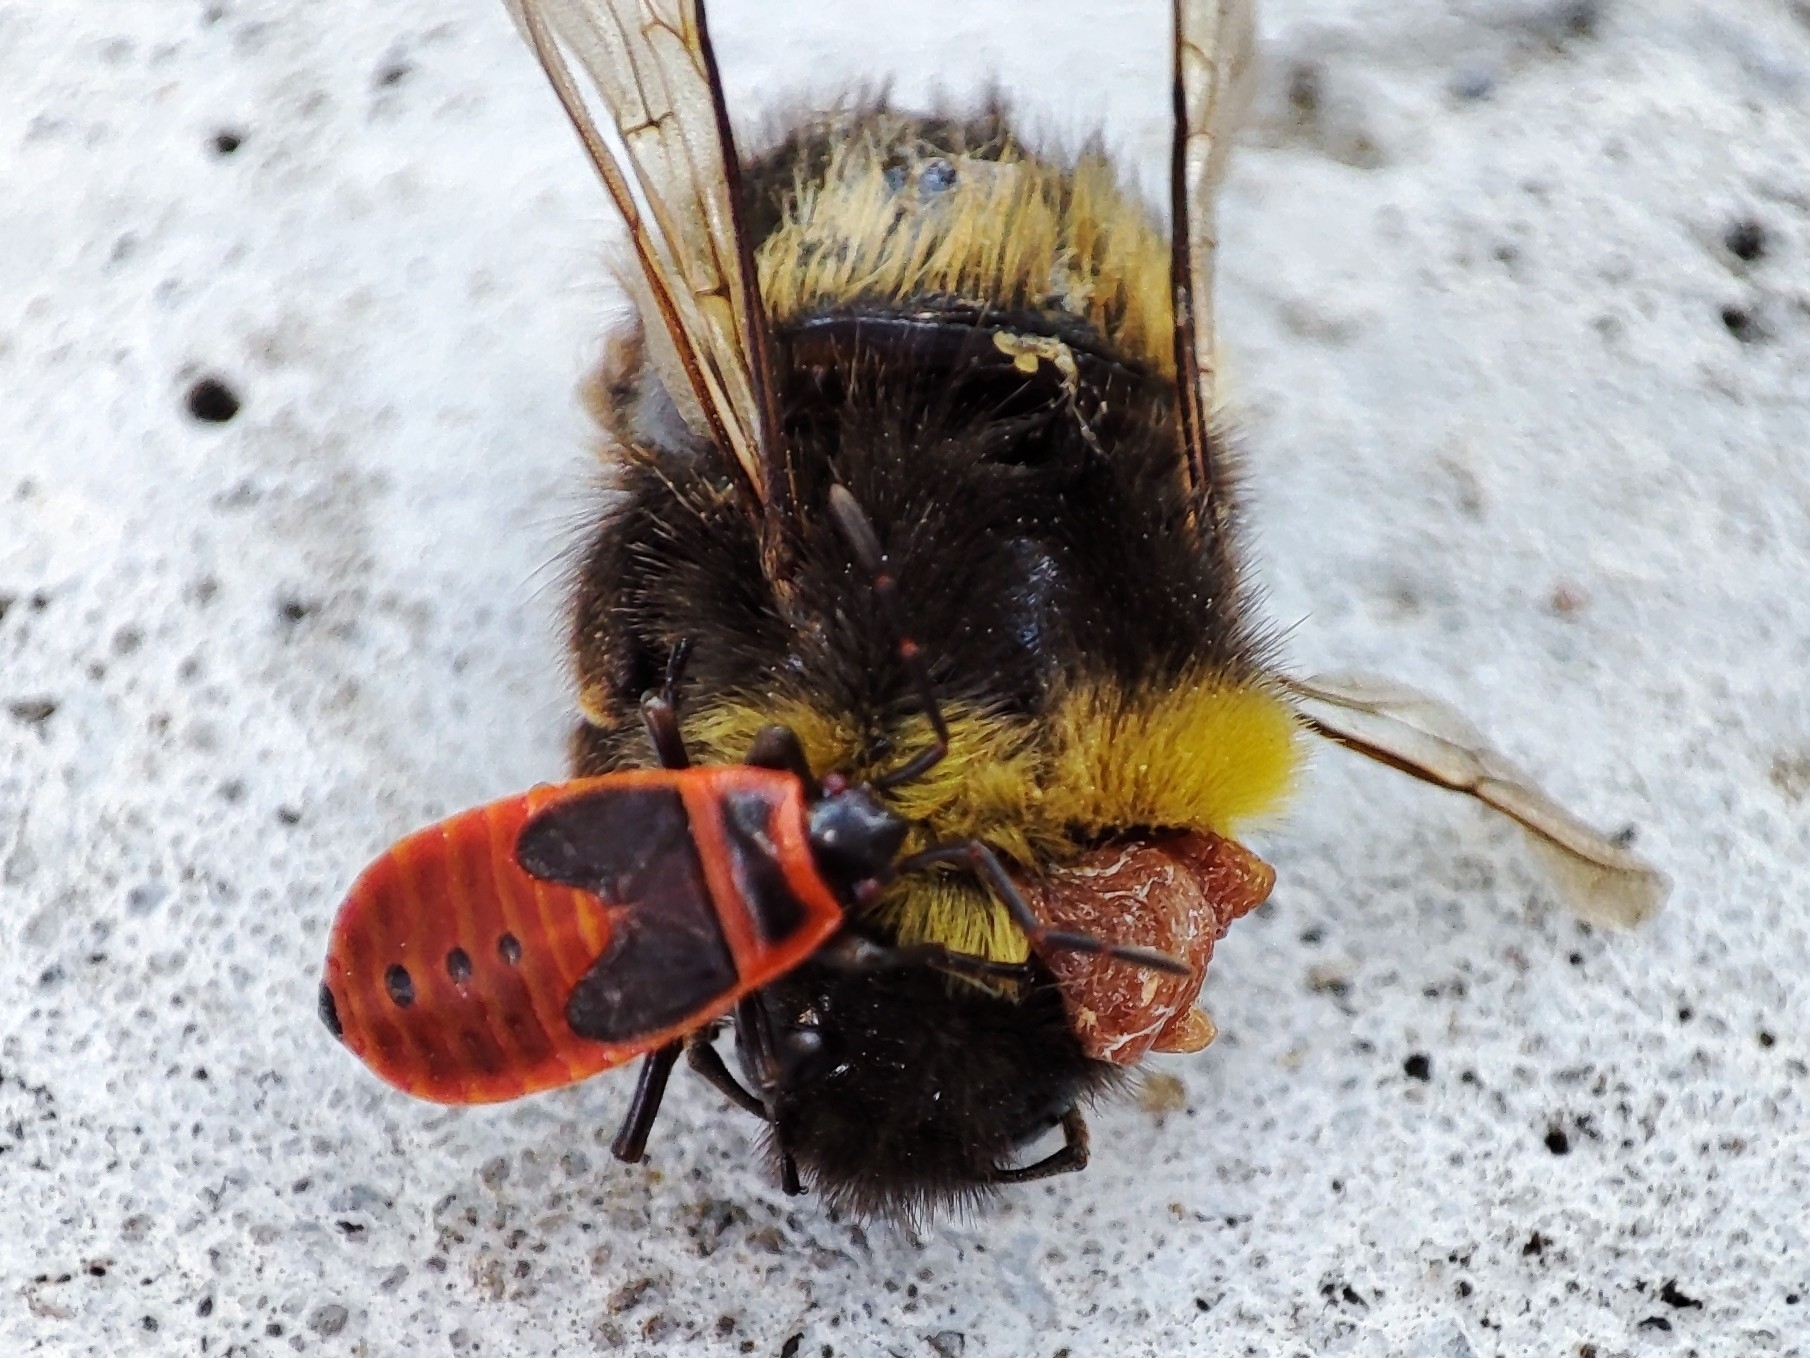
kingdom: Animalia
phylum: Arthropoda
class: Insecta
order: Hemiptera
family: Pyrrhocoridae
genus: Pyrrhocoris
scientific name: Pyrrhocoris apterus
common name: Firebug
